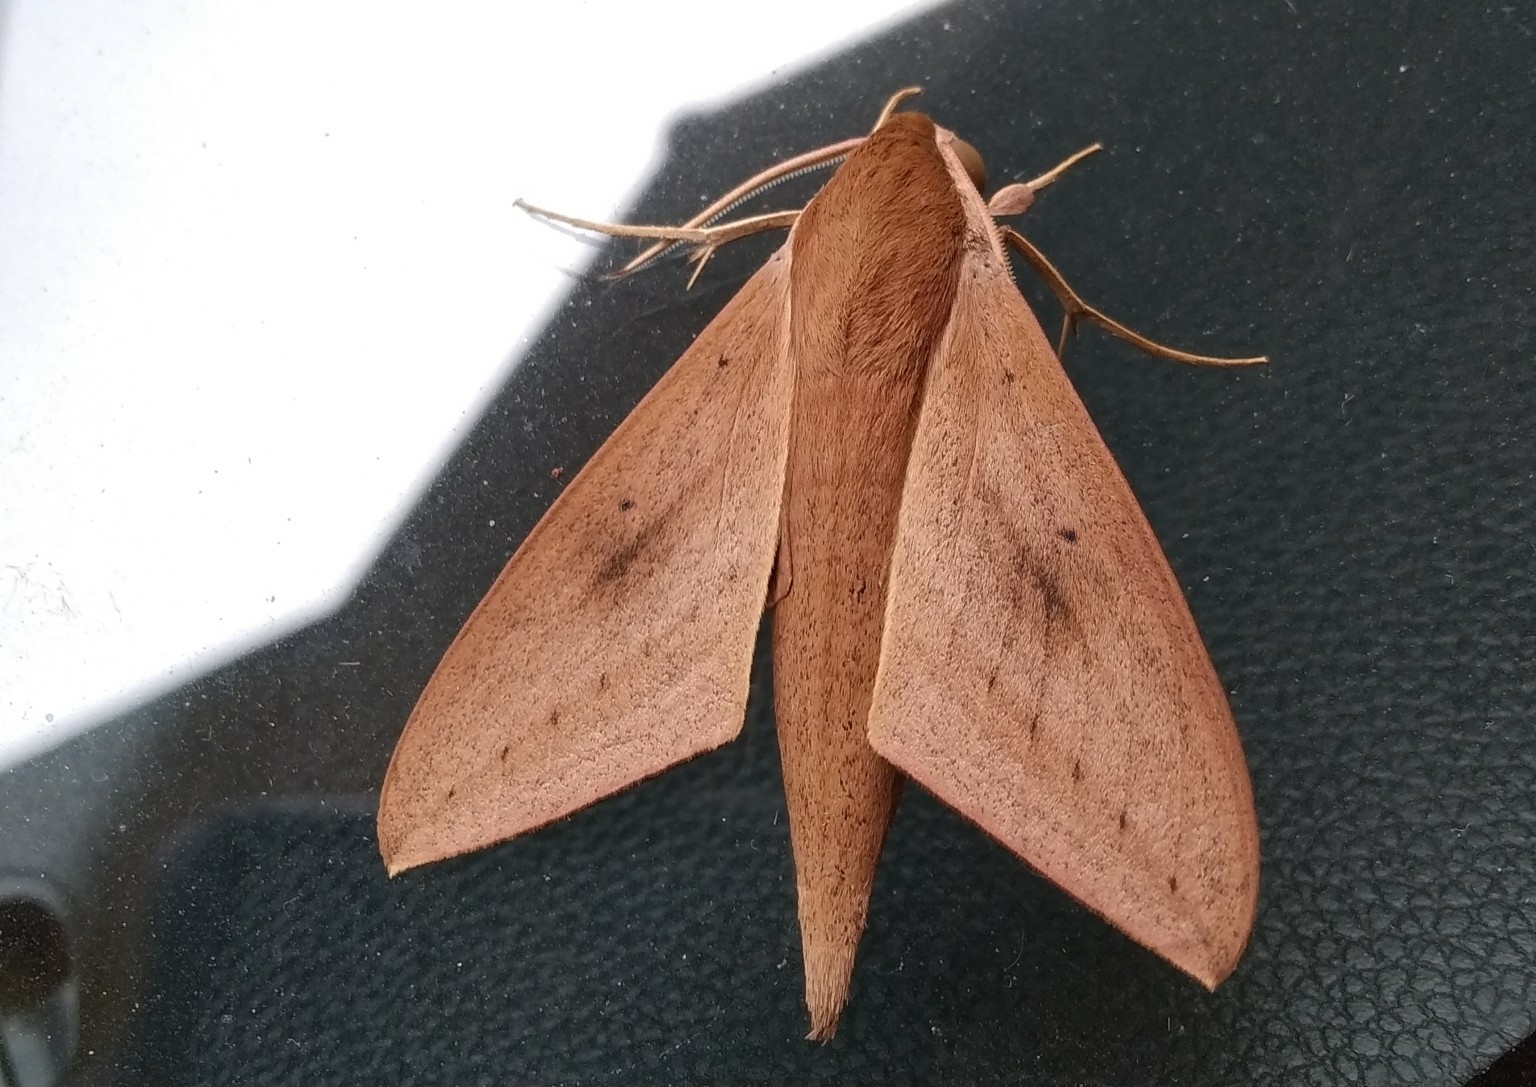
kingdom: Animalia
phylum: Arthropoda
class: Insecta
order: Lepidoptera
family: Sphingidae
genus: Theretra
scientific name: Theretra rhesus
